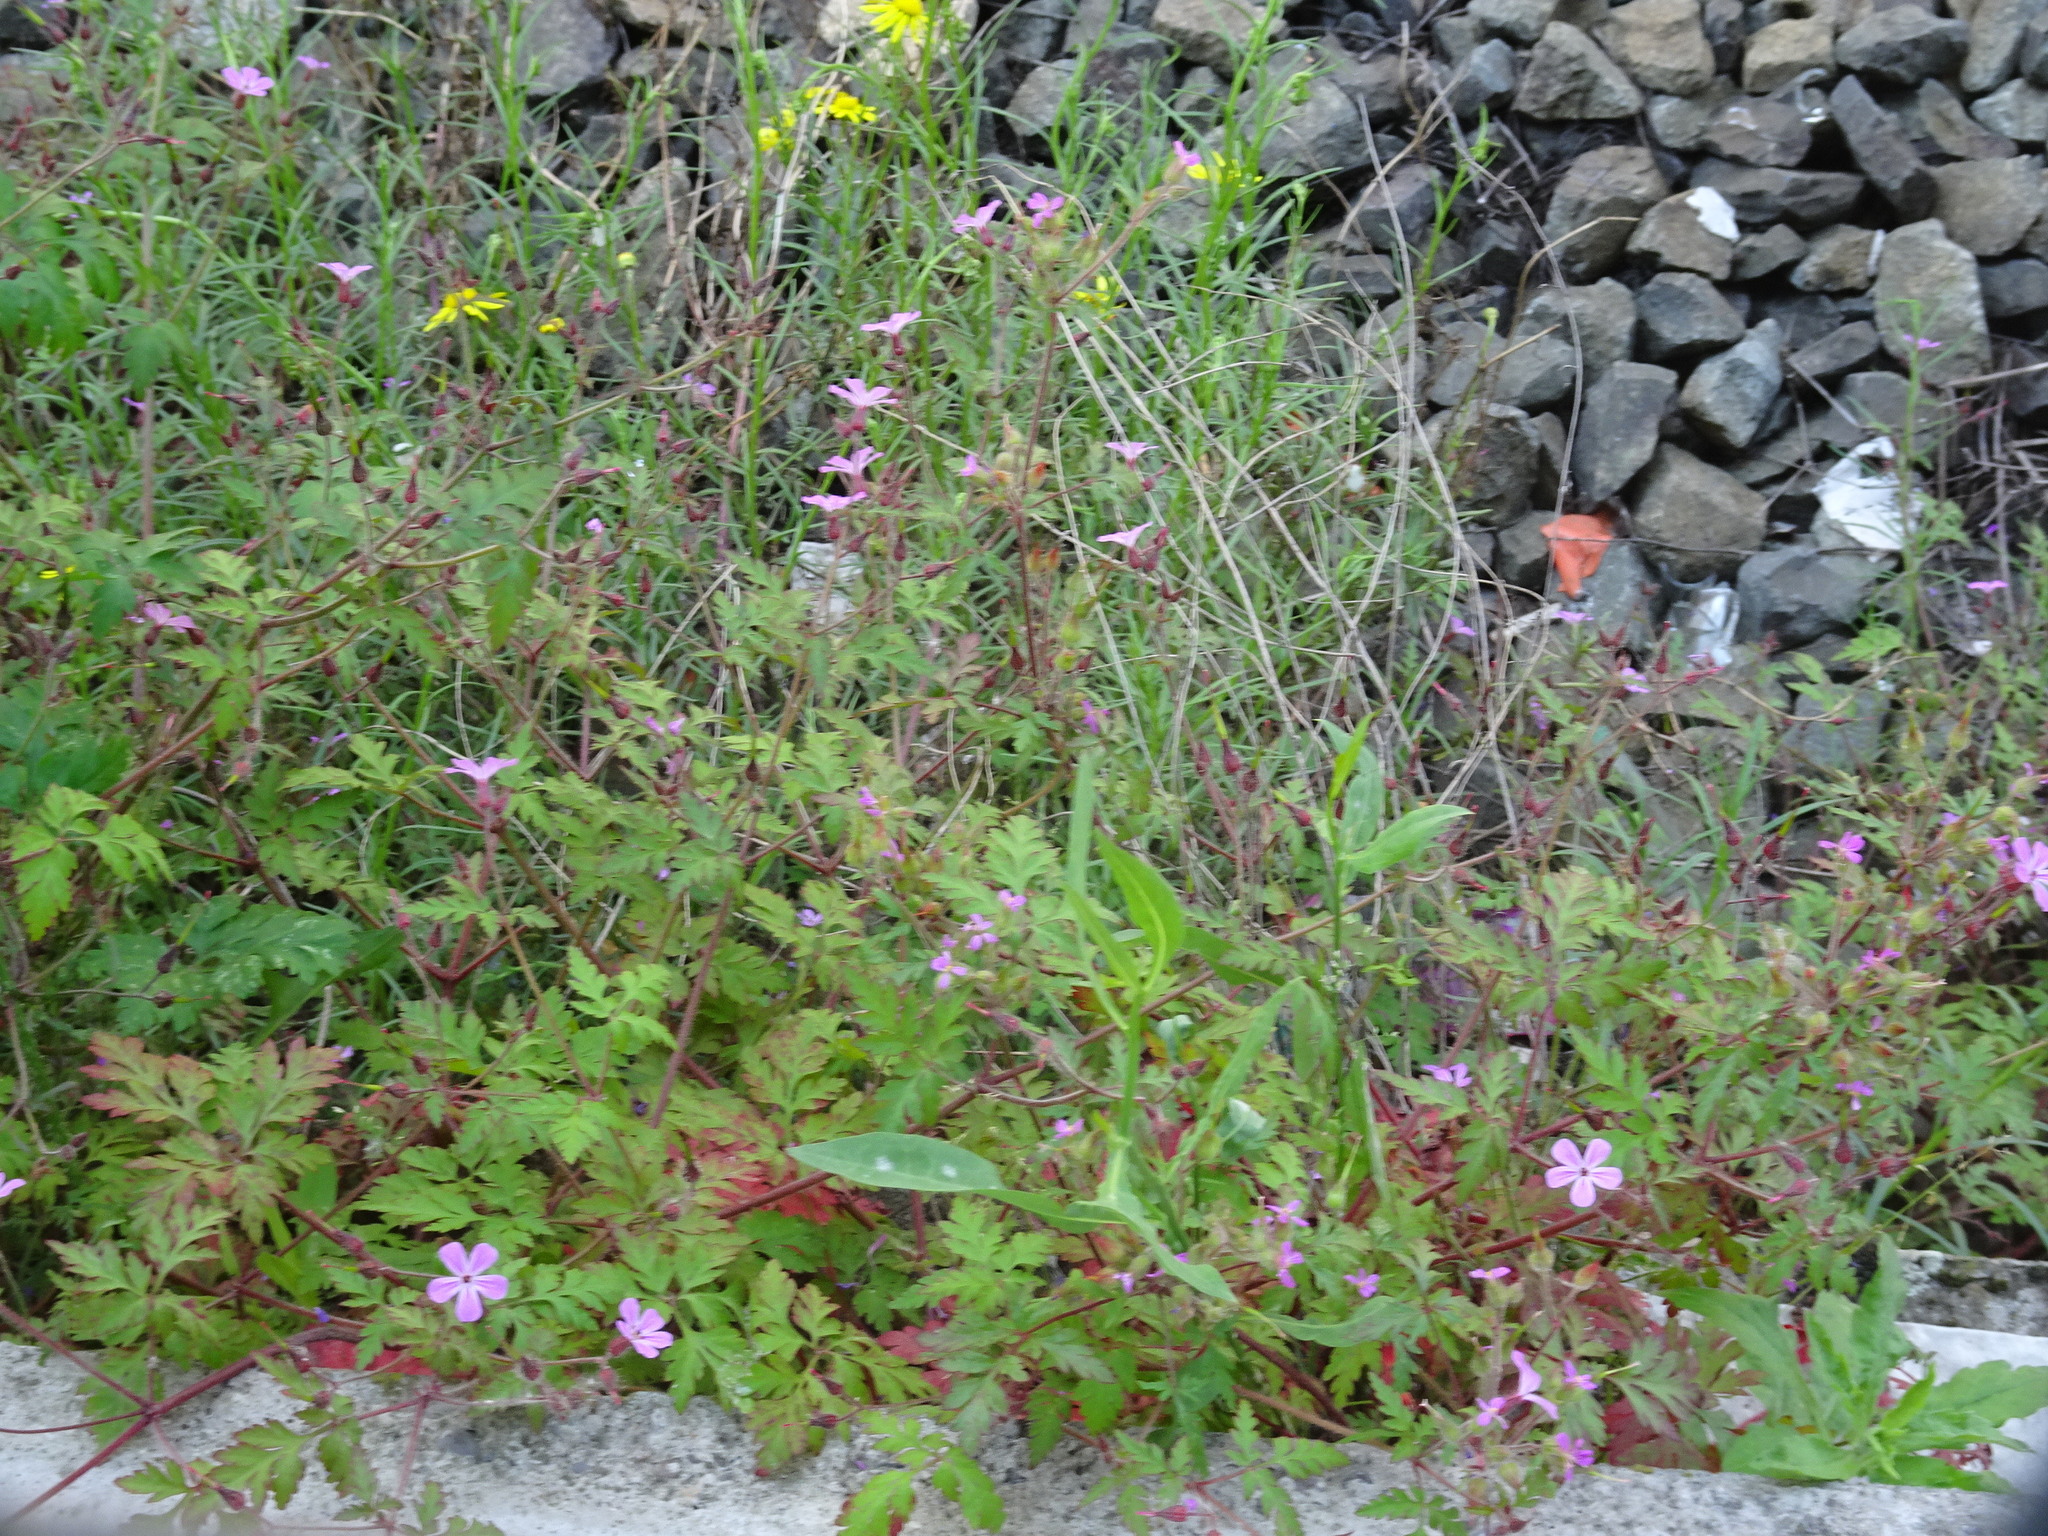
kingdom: Plantae
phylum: Tracheophyta
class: Magnoliopsida
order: Geraniales
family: Geraniaceae
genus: Geranium
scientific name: Geranium robertianum
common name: Herb-robert
